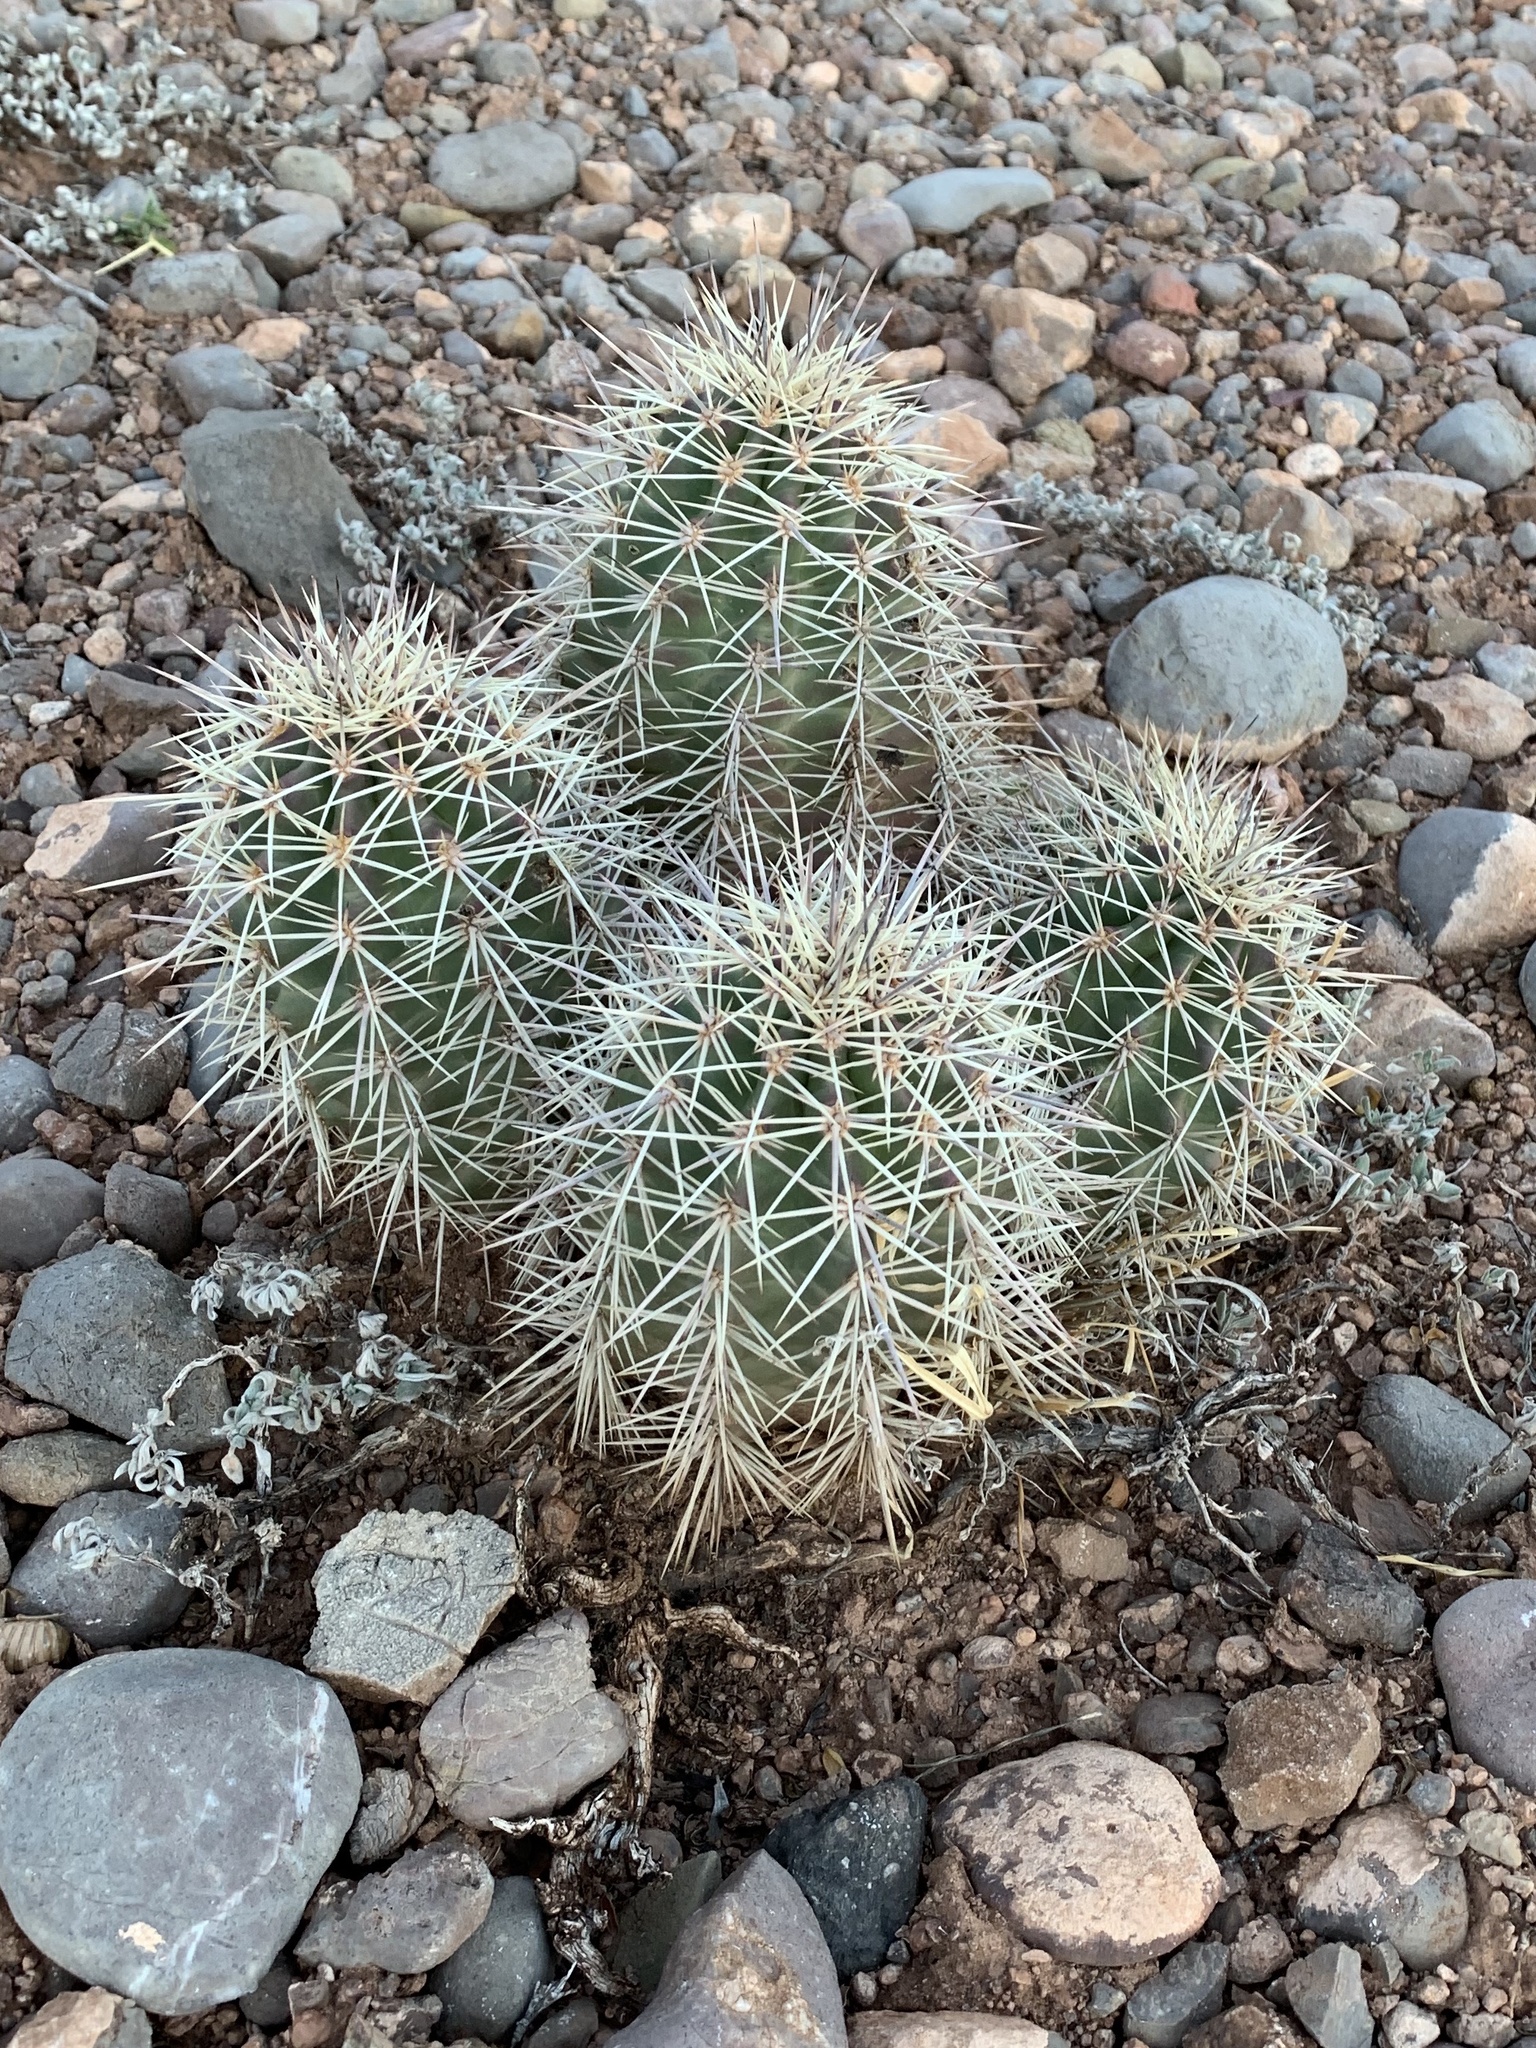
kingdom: Plantae
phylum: Tracheophyta
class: Magnoliopsida
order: Caryophyllales
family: Cactaceae
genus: Echinocereus
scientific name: Echinocereus coccineus
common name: Scarlet hedgehog cactus
